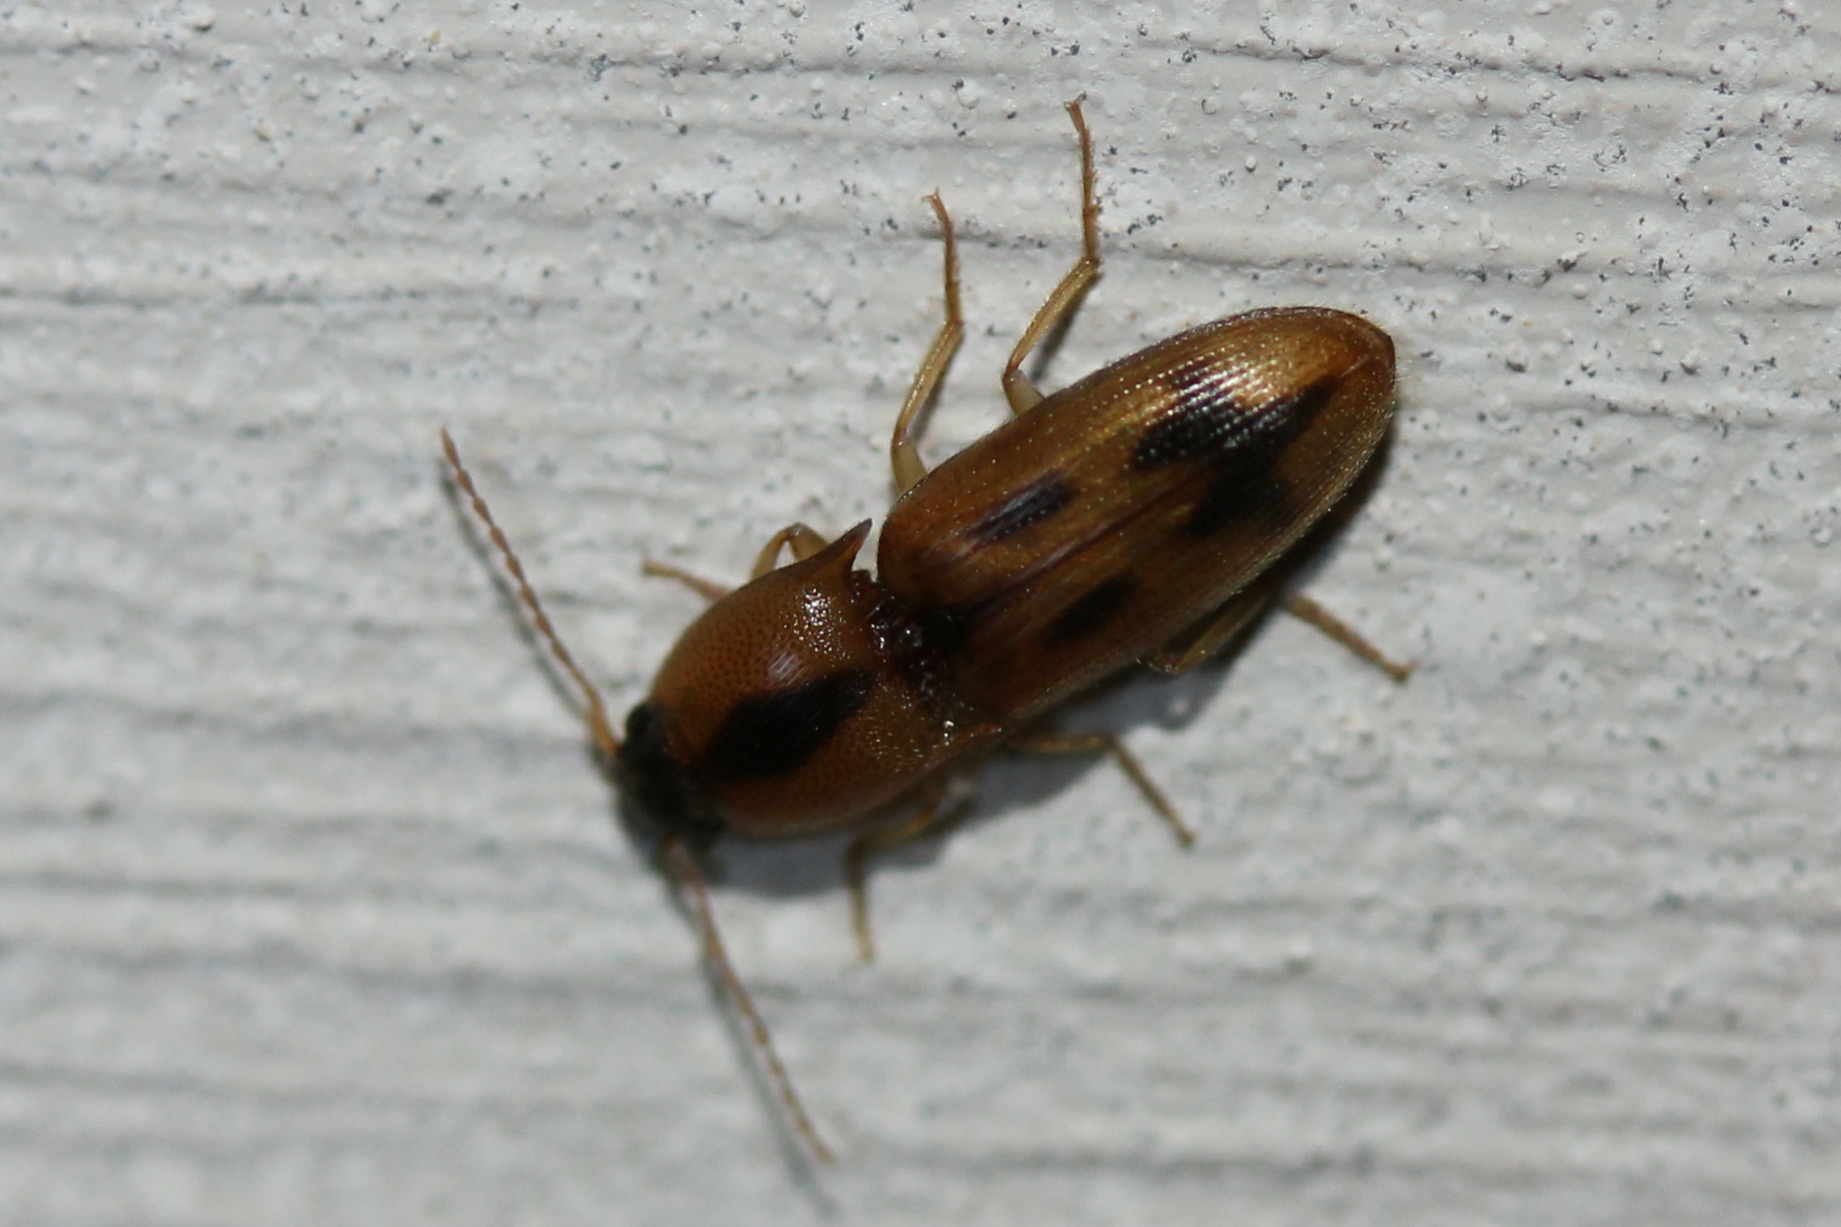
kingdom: Animalia
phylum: Arthropoda
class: Insecta
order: Coleoptera
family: Elateridae
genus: Aeolus
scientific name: Aeolus mellillus
